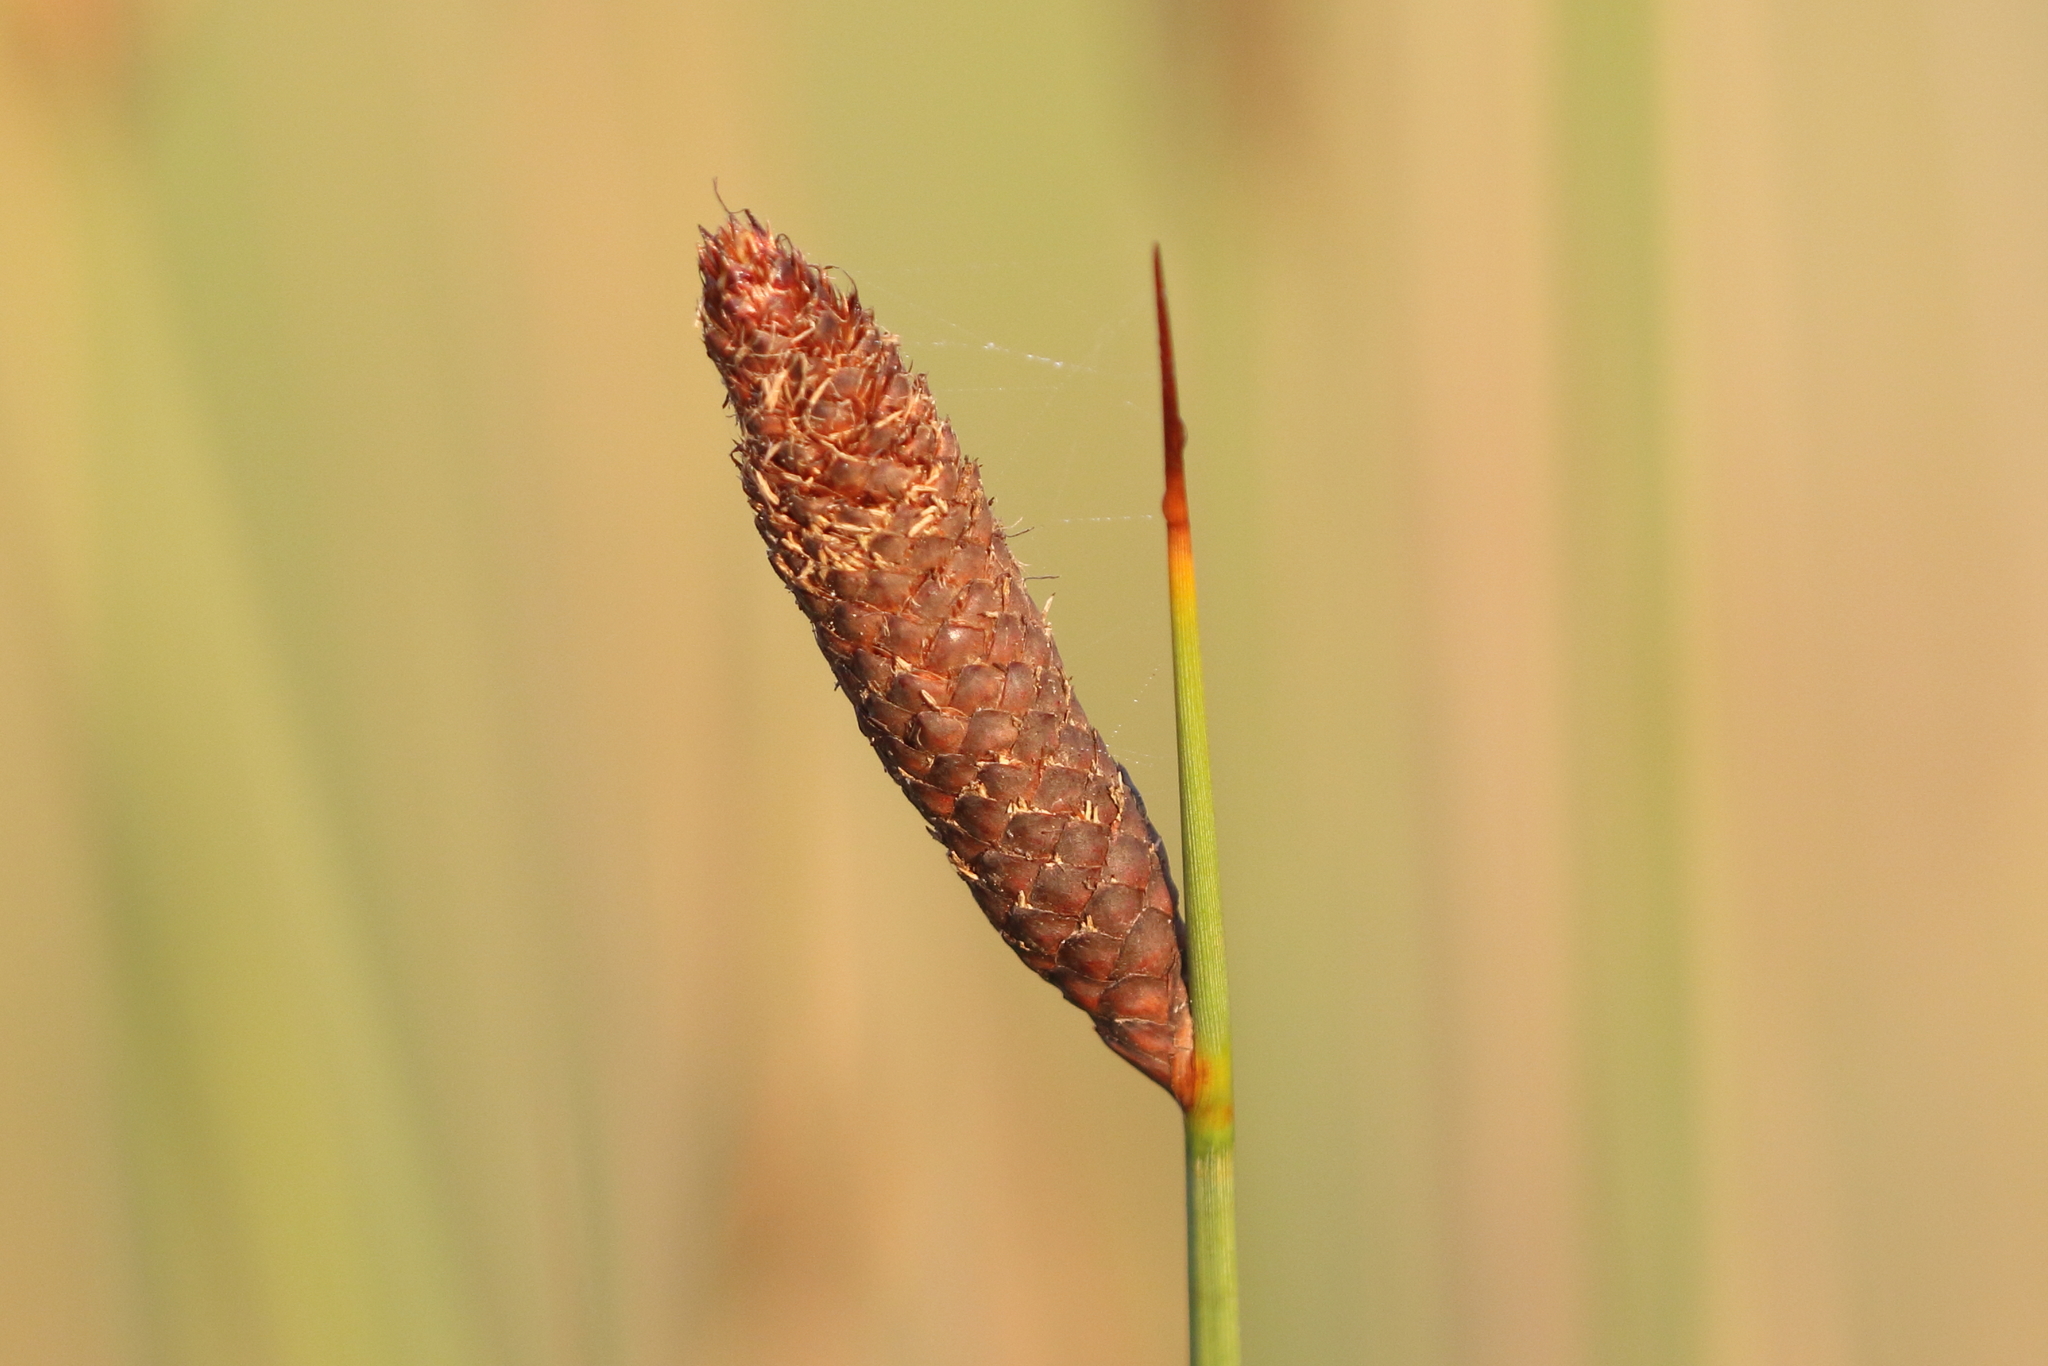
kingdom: Plantae
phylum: Tracheophyta
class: Liliopsida
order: Poales
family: Cyperaceae
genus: Lepironia
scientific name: Lepironia articulata
